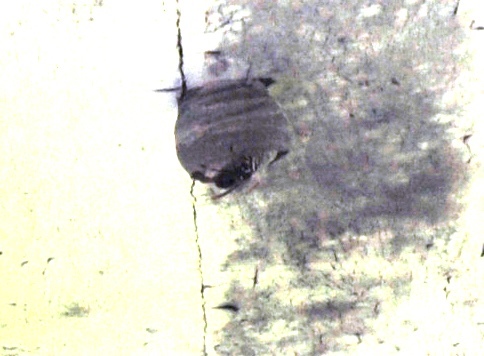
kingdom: Animalia
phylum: Arthropoda
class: Insecta
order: Hymenoptera
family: Vespidae
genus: Dolichovespula
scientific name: Dolichovespula maculata
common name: Bald-faced hornet
